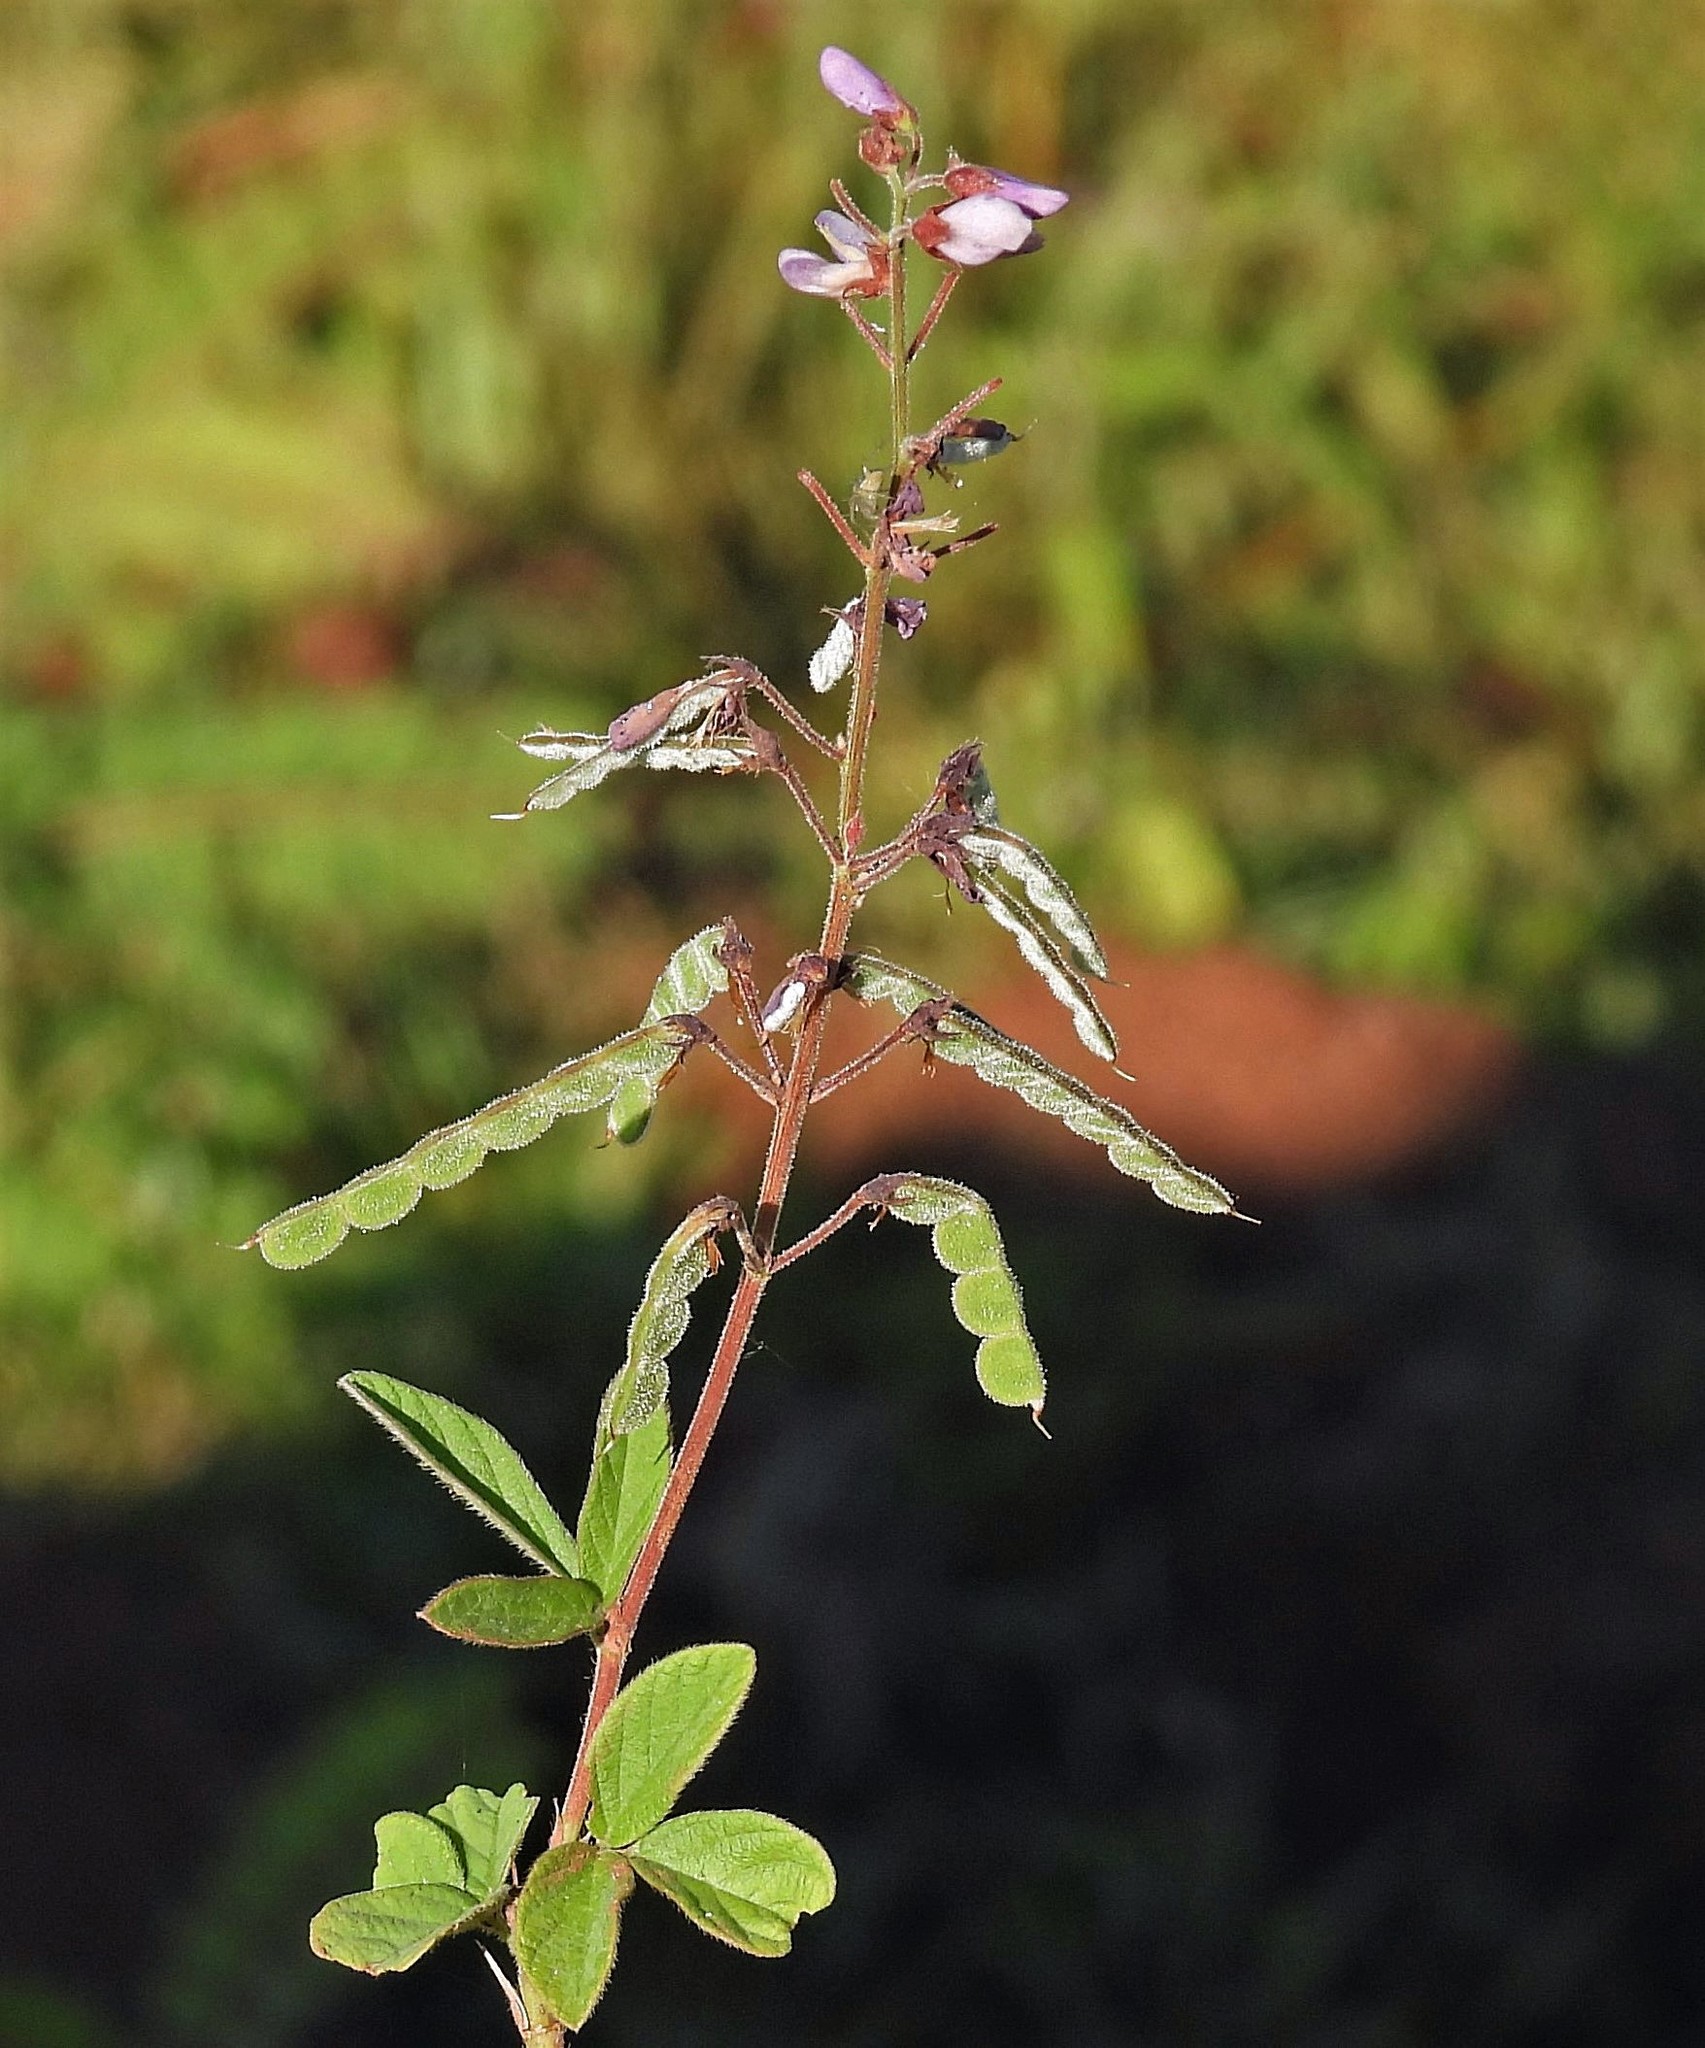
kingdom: Plantae
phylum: Tracheophyta
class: Magnoliopsida
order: Fabales
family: Fabaceae
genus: Desmodium
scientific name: Desmodium incanum
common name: Tickclover
